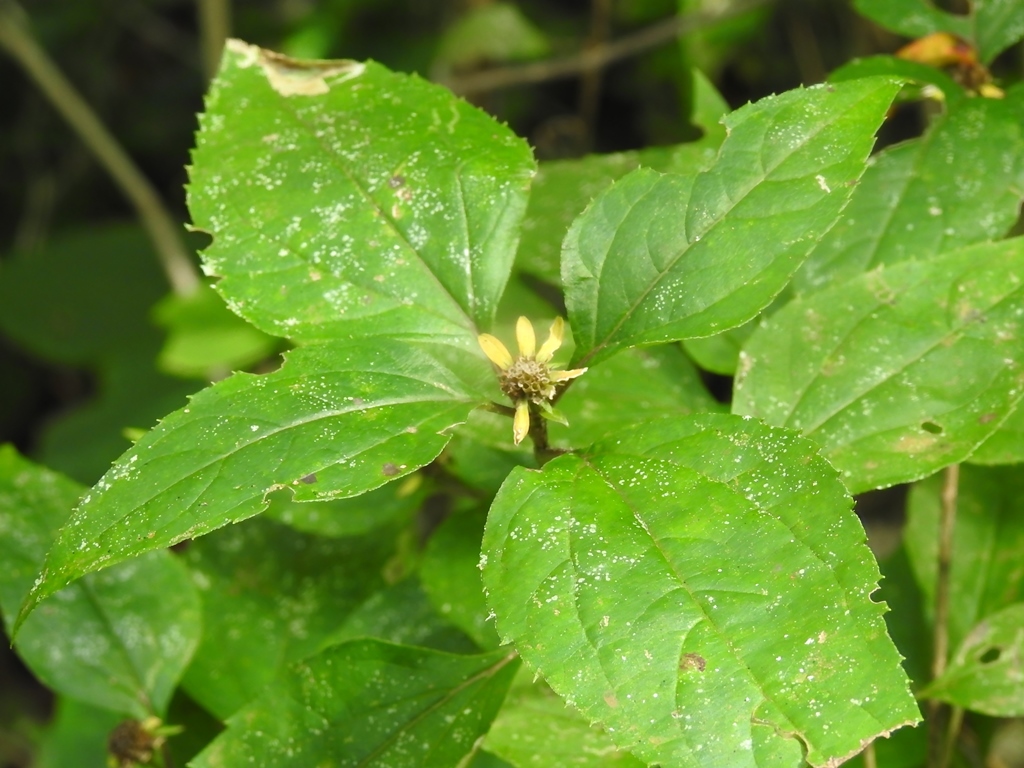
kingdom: Plantae
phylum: Tracheophyta
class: Magnoliopsida
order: Asterales
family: Asteraceae
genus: Philactis
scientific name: Philactis zinnioides
